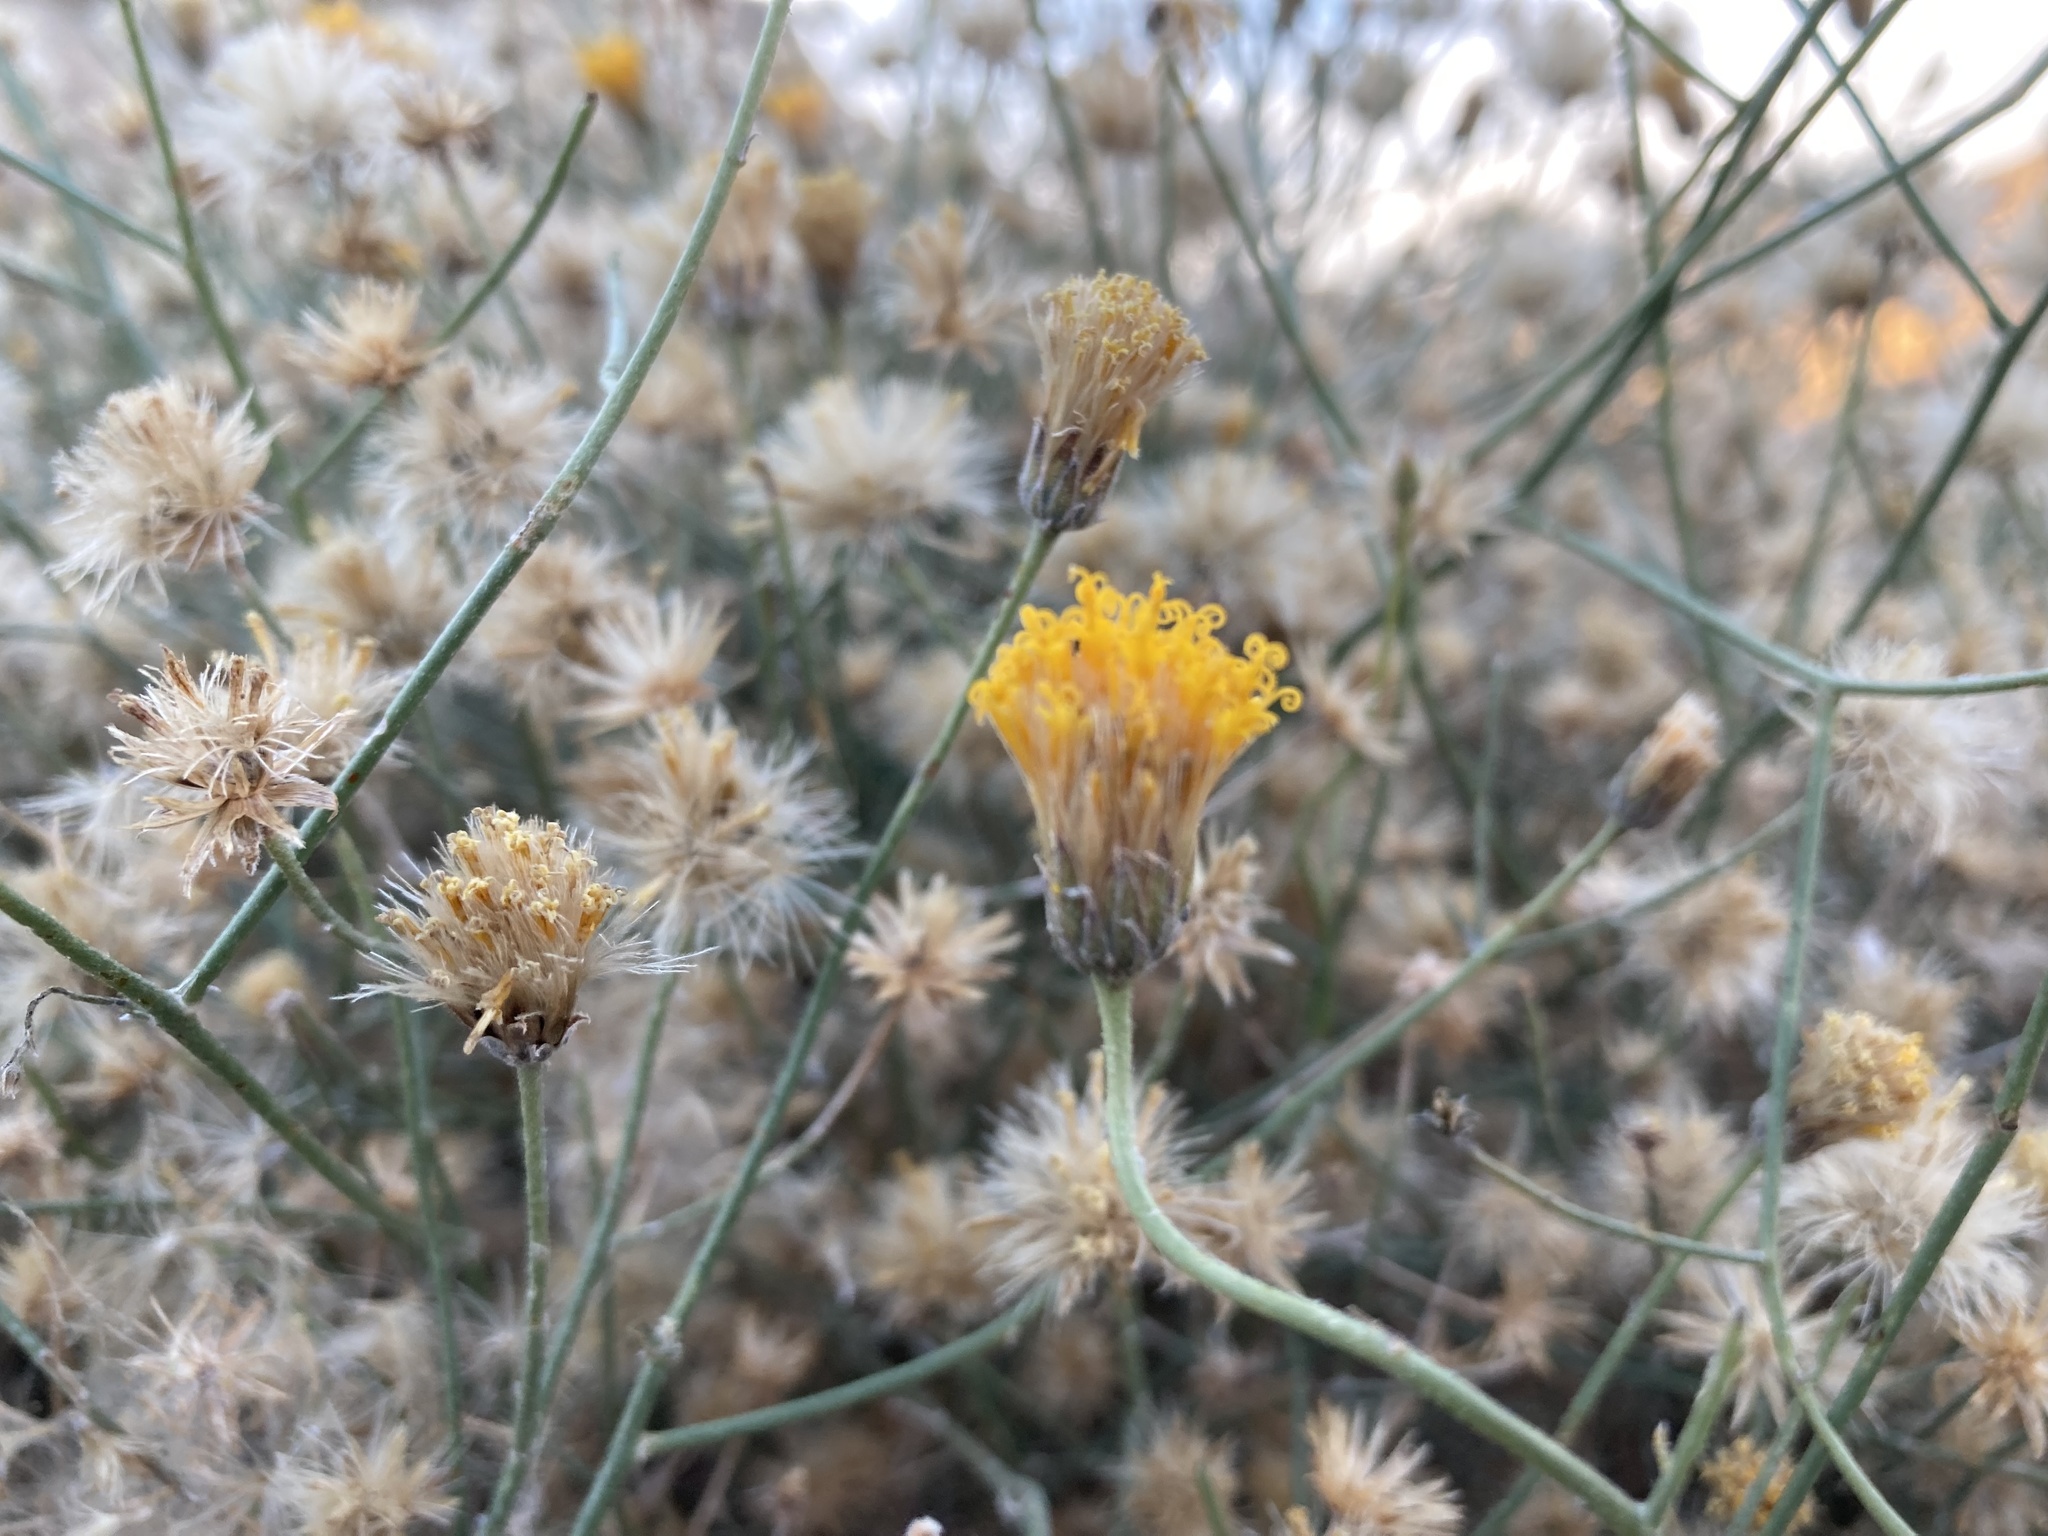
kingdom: Plantae
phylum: Tracheophyta
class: Magnoliopsida
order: Asterales
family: Asteraceae
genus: Bebbia
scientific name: Bebbia juncea
